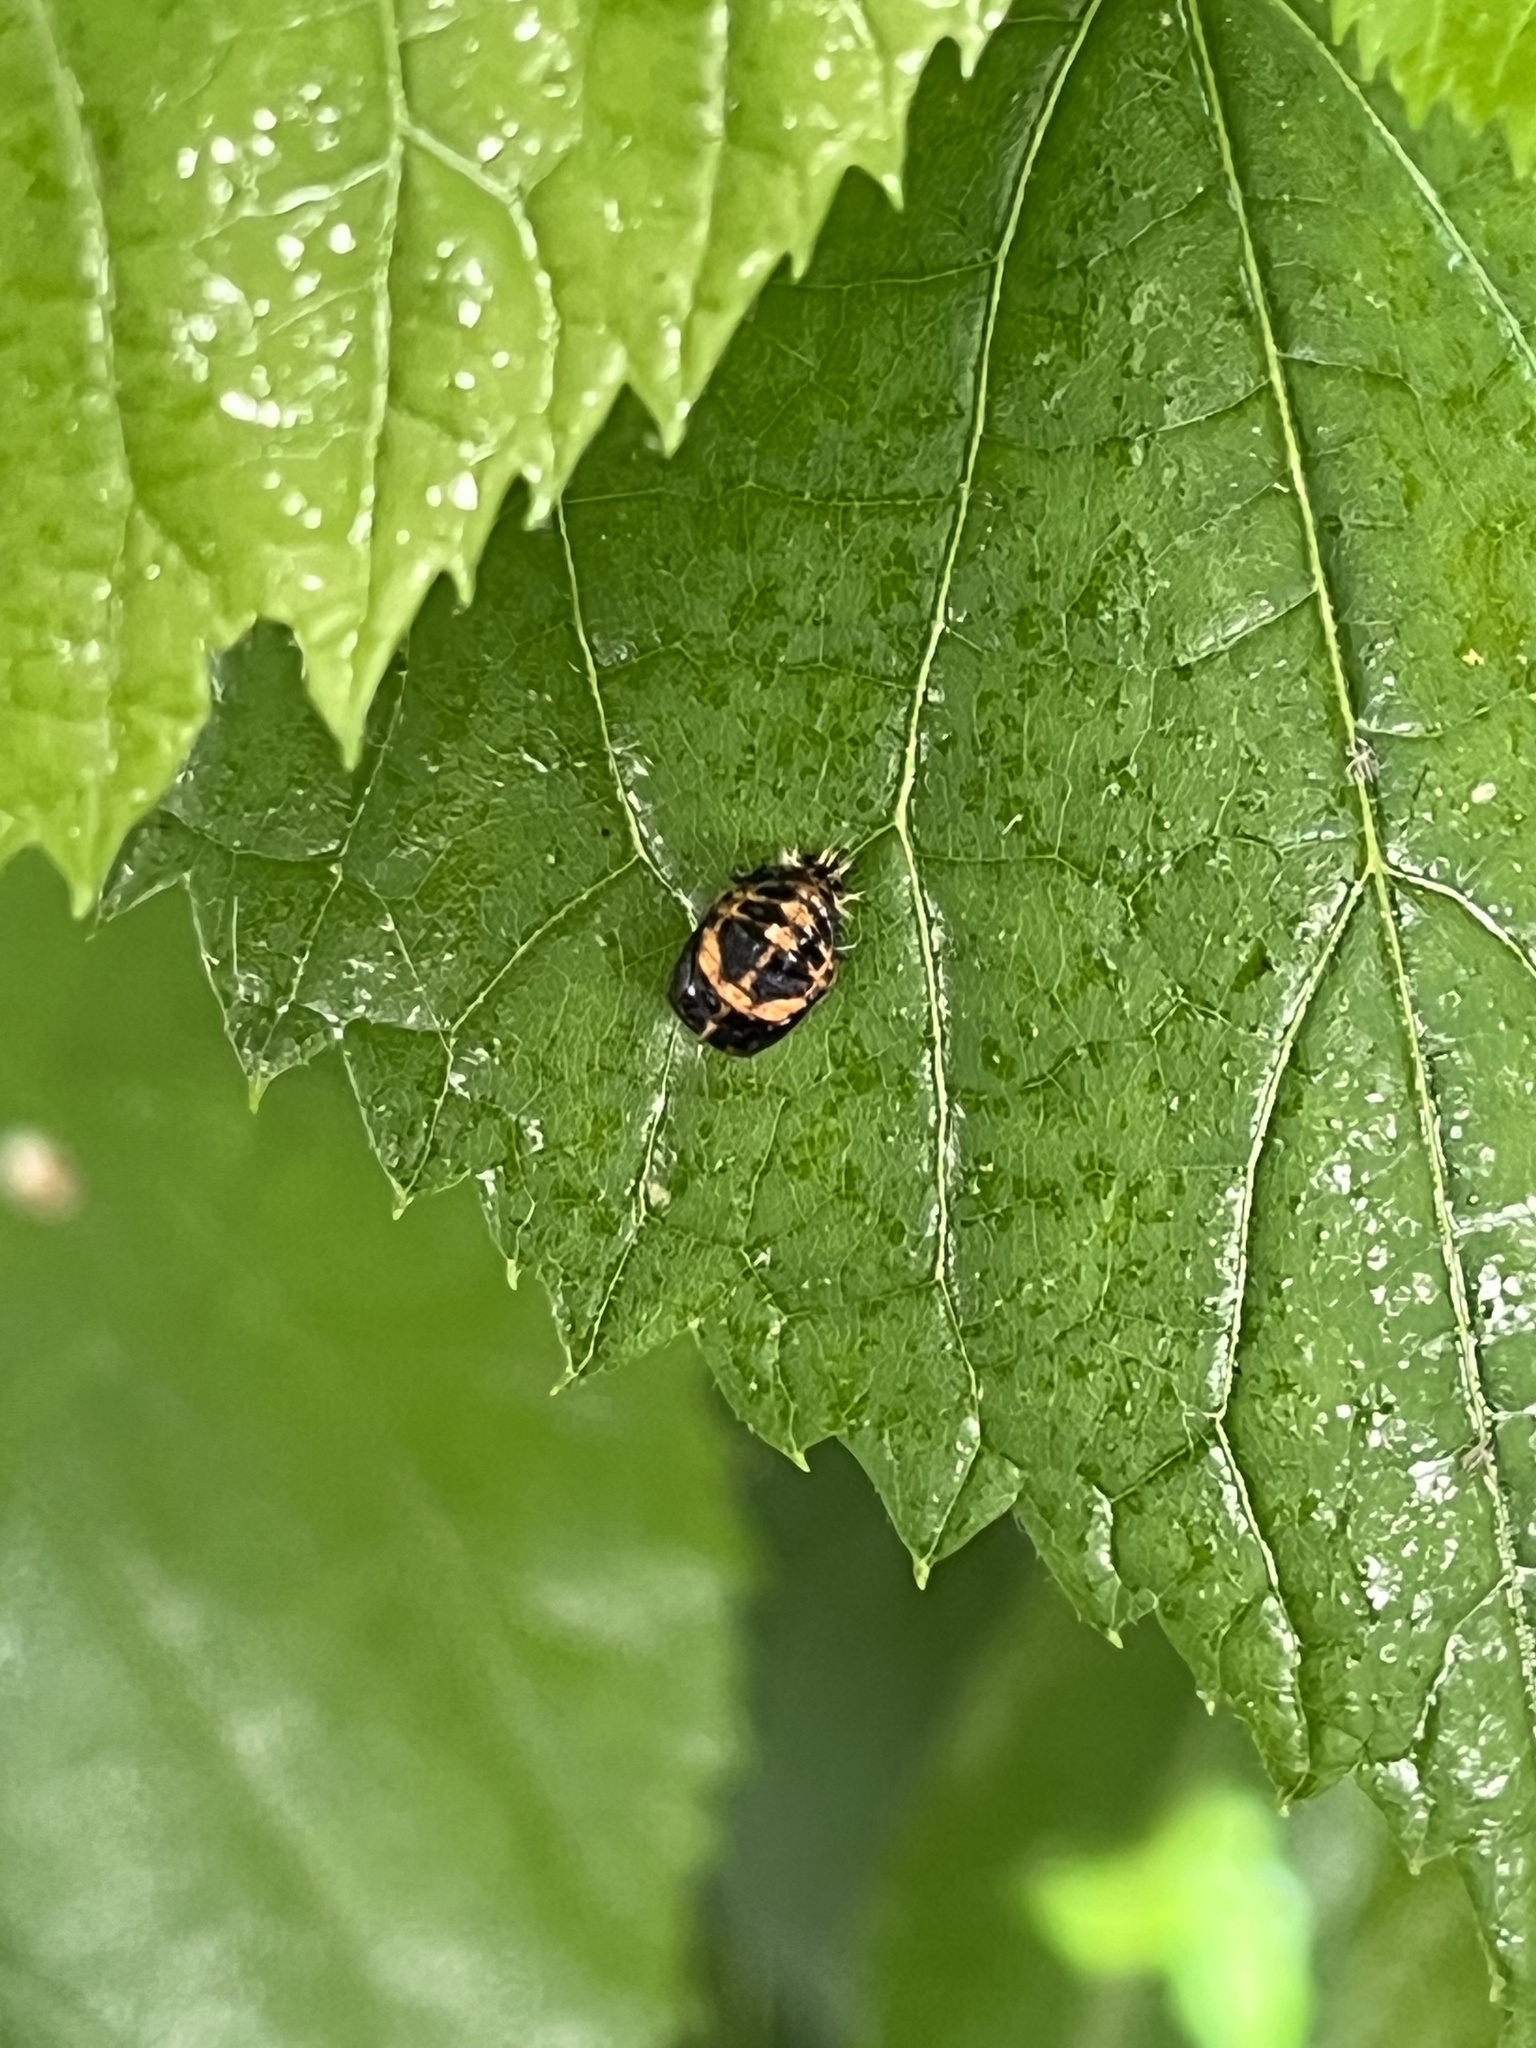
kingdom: Animalia
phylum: Arthropoda
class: Insecta
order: Coleoptera
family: Coccinellidae
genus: Harmonia
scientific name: Harmonia axyridis
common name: Harlequin ladybird
